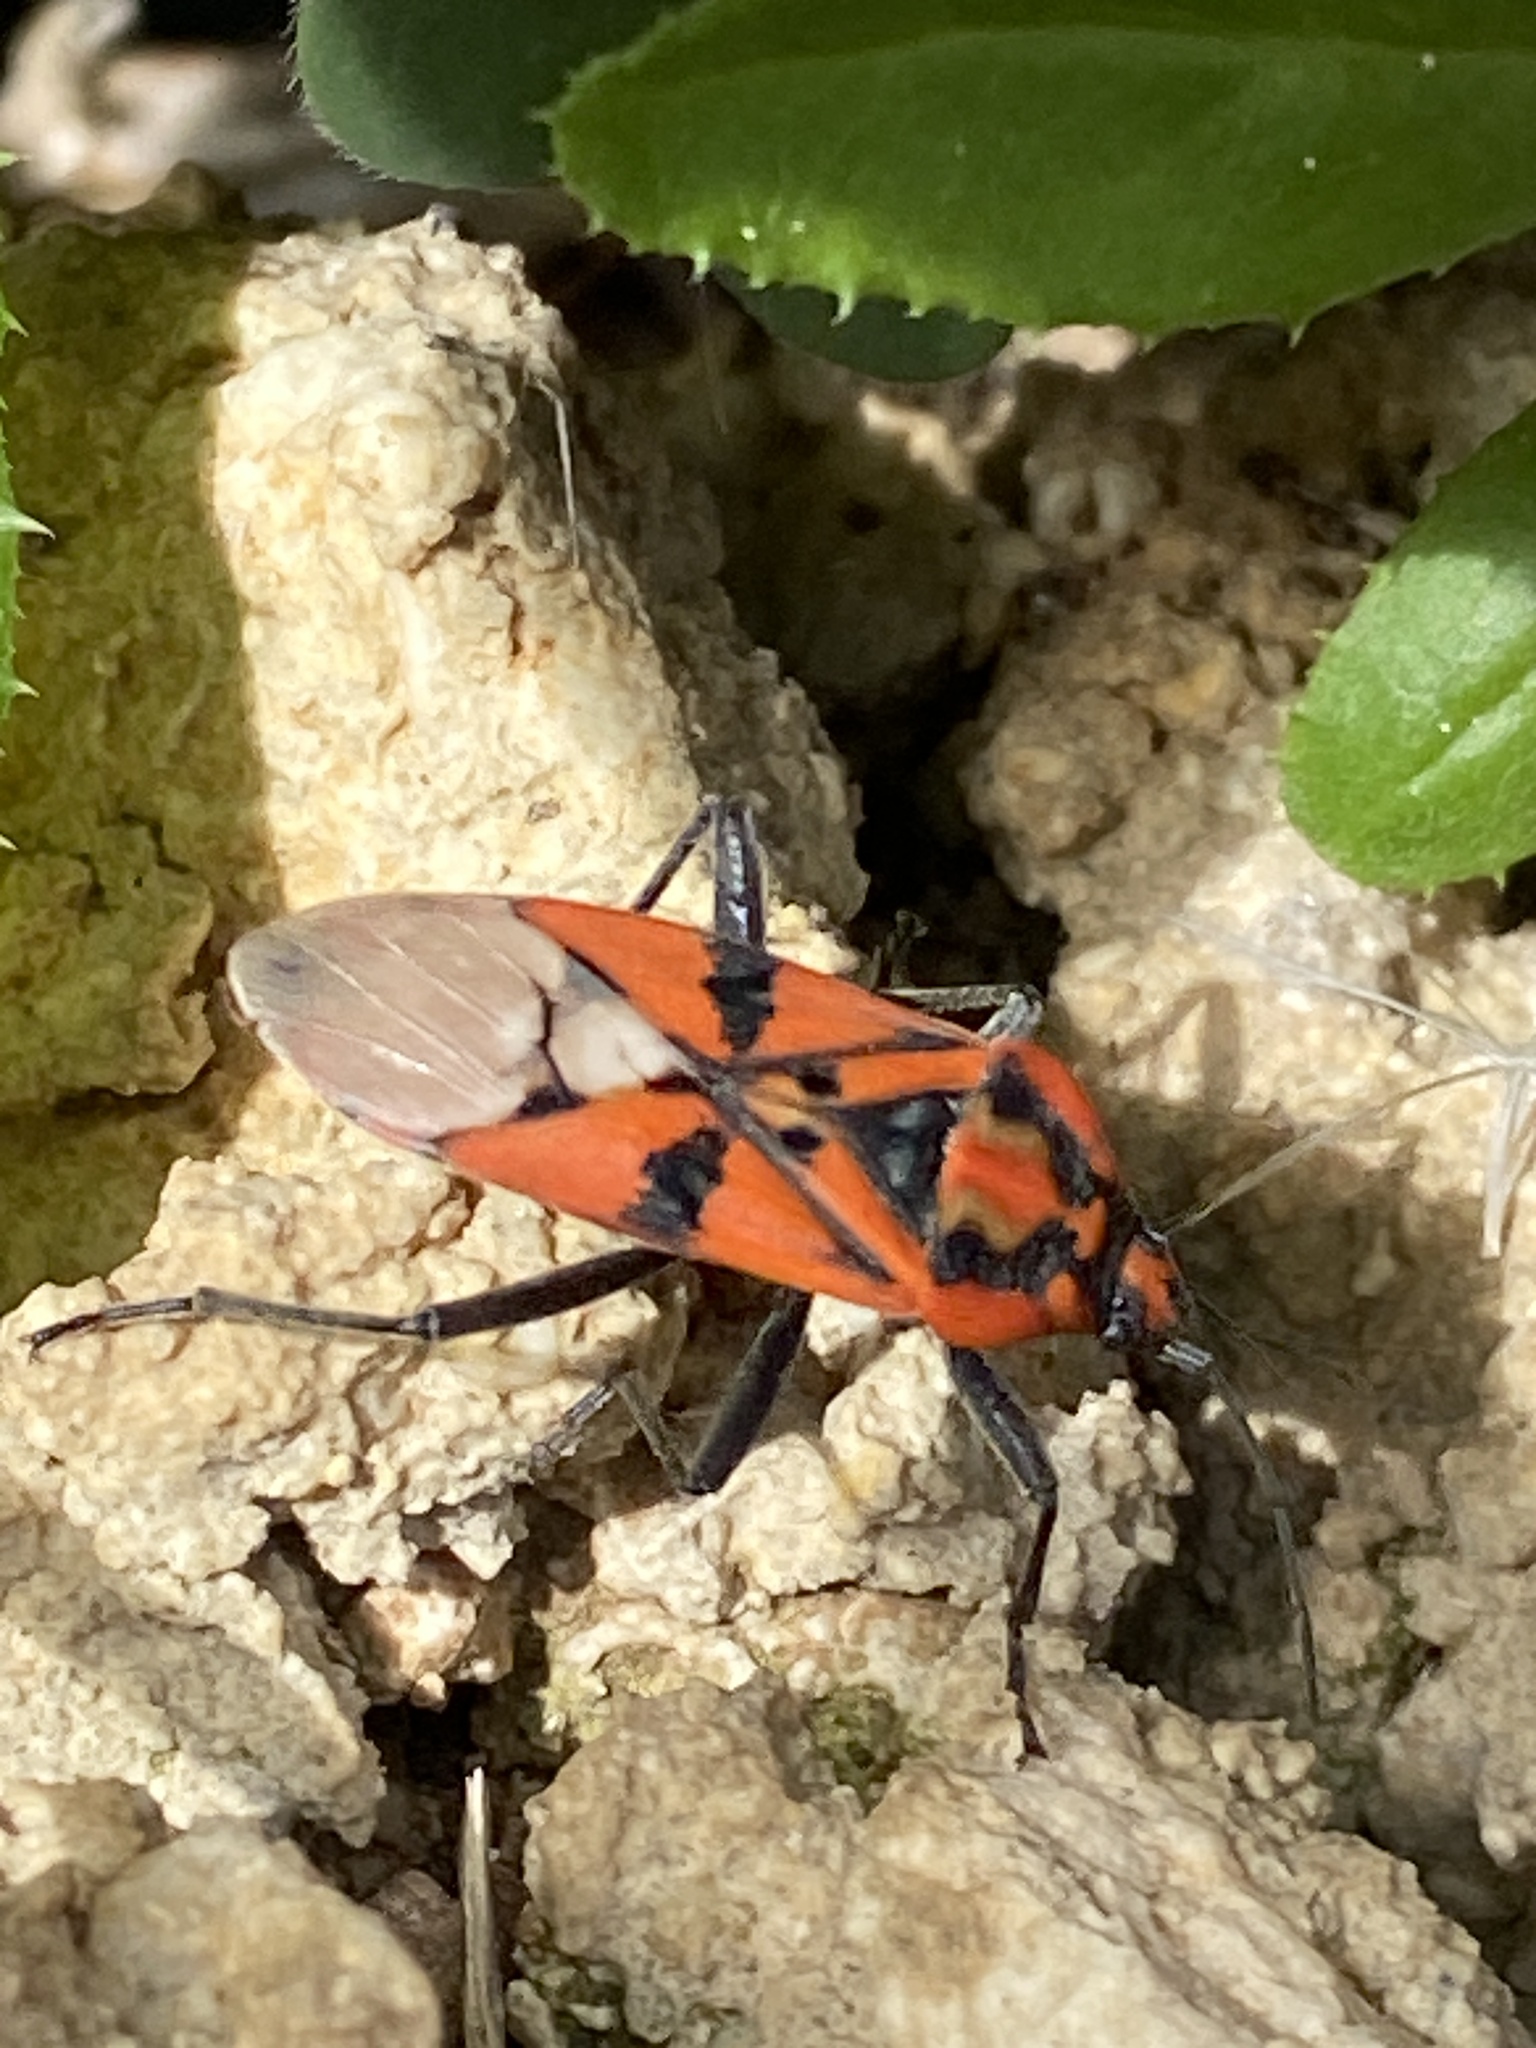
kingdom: Animalia
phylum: Arthropoda
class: Insecta
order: Hemiptera
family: Lygaeidae
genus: Spilostethus
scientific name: Spilostethus pandurus
